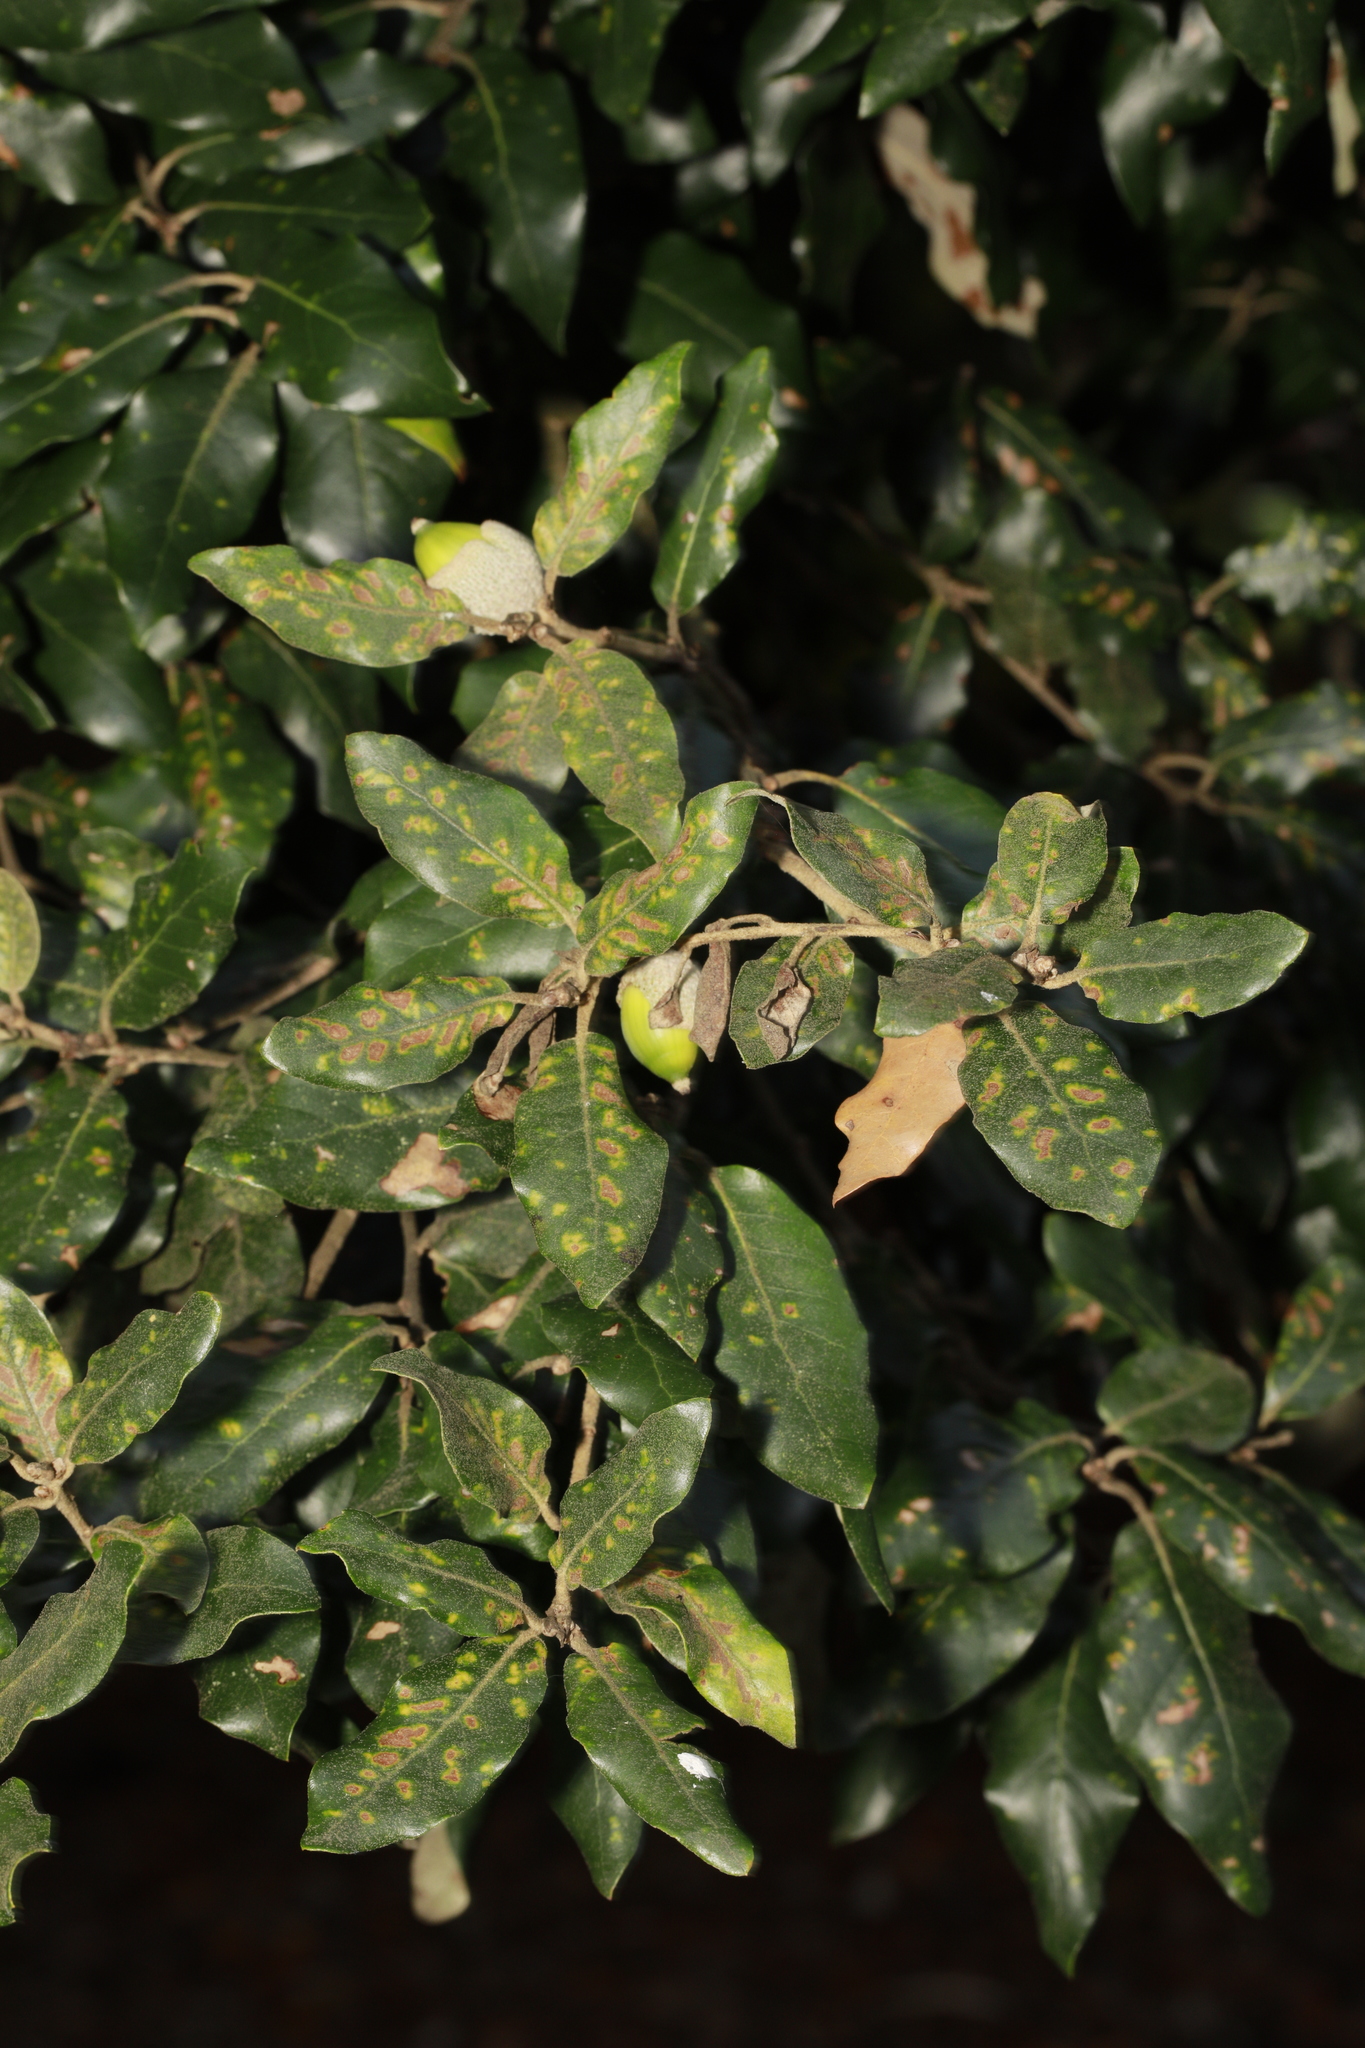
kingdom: Plantae
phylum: Tracheophyta
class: Magnoliopsida
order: Fagales
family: Fagaceae
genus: Quercus
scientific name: Quercus ilex
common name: Evergreen oak
